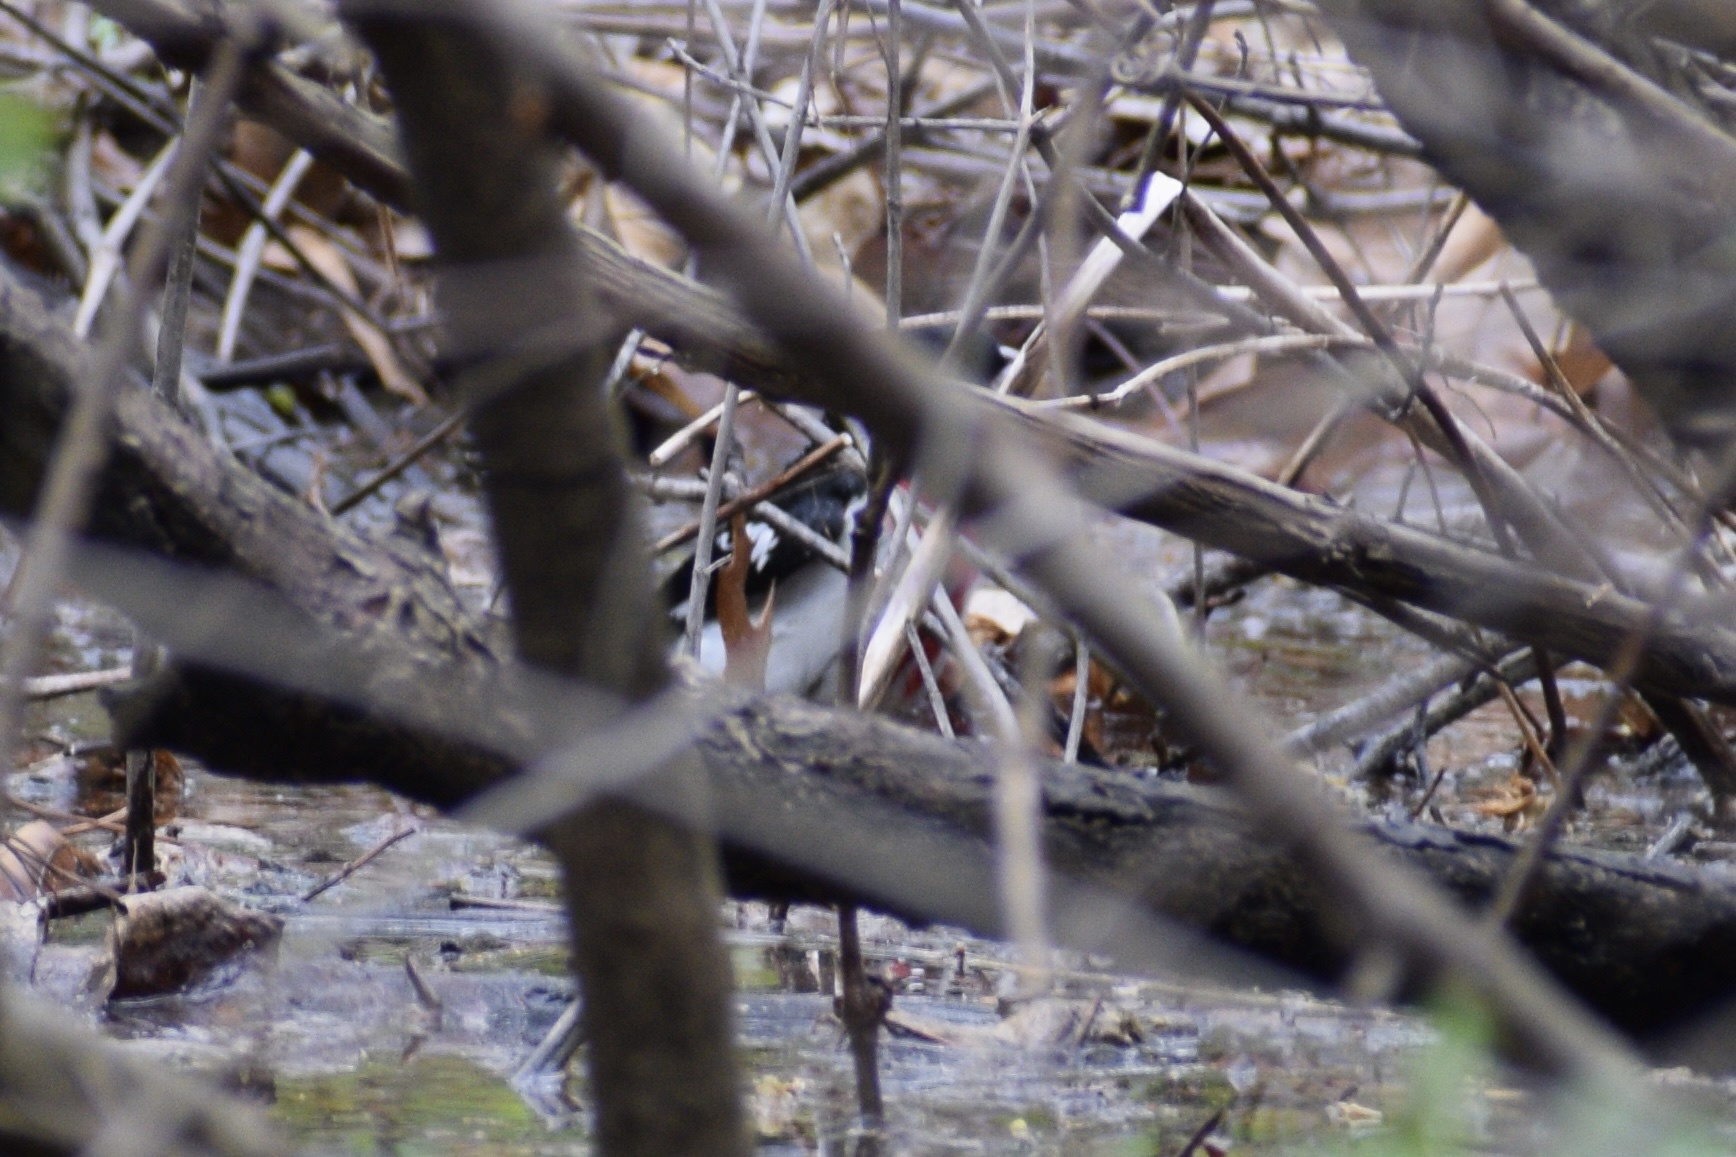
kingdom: Animalia
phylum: Chordata
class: Aves
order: Passeriformes
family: Cardinalidae
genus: Pheucticus
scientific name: Pheucticus ludovicianus
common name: Rose-breasted grosbeak
